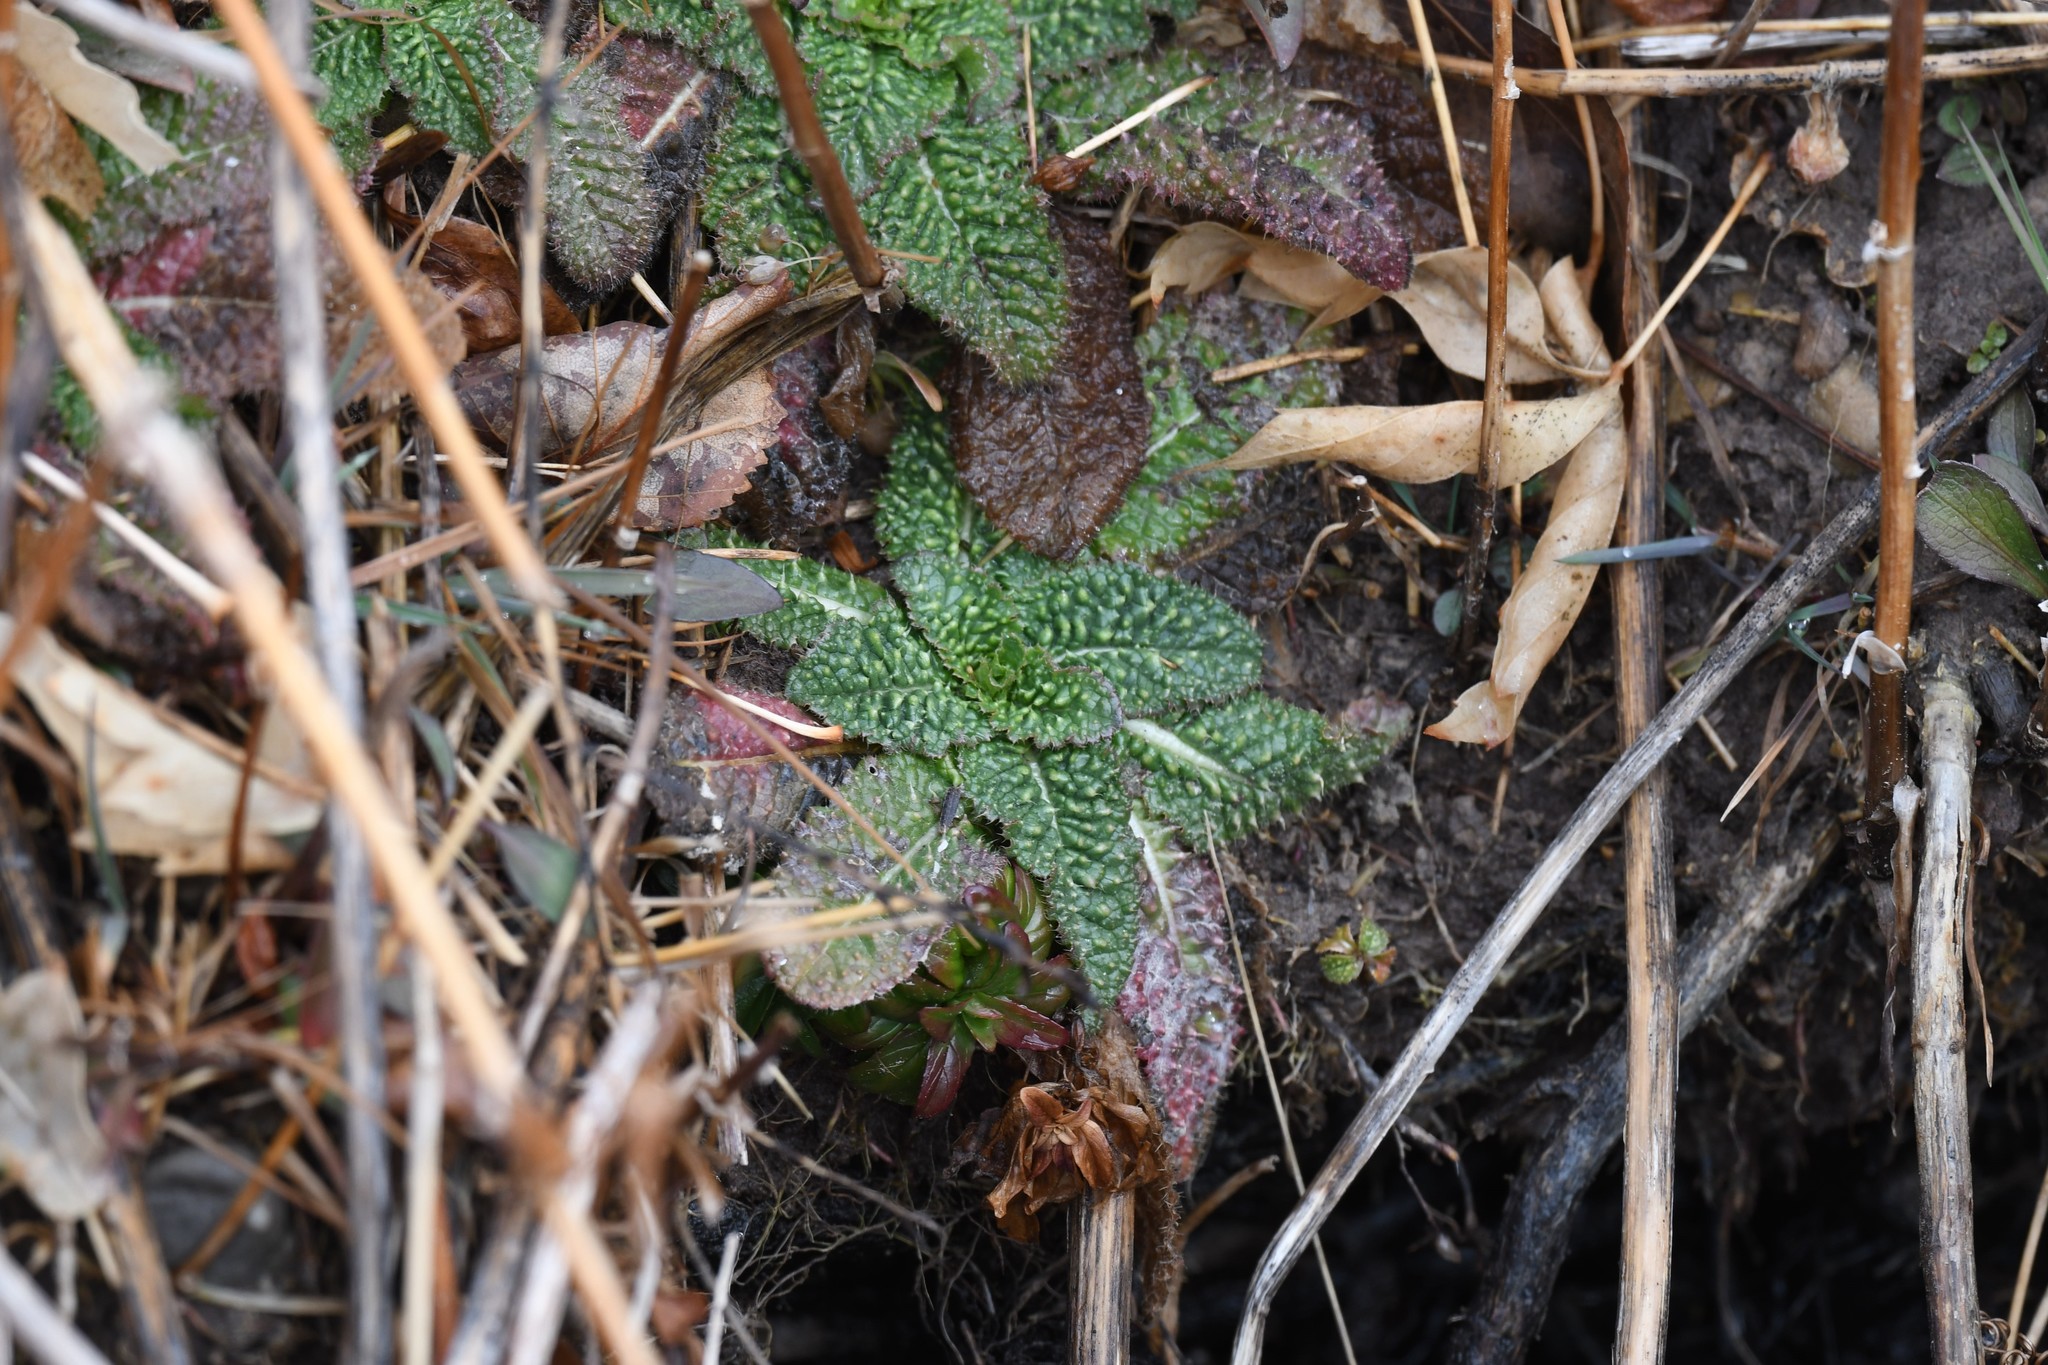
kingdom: Plantae
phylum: Tracheophyta
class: Magnoliopsida
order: Dipsacales
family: Caprifoliaceae
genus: Dipsacus
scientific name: Dipsacus fullonum
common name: Teasel
